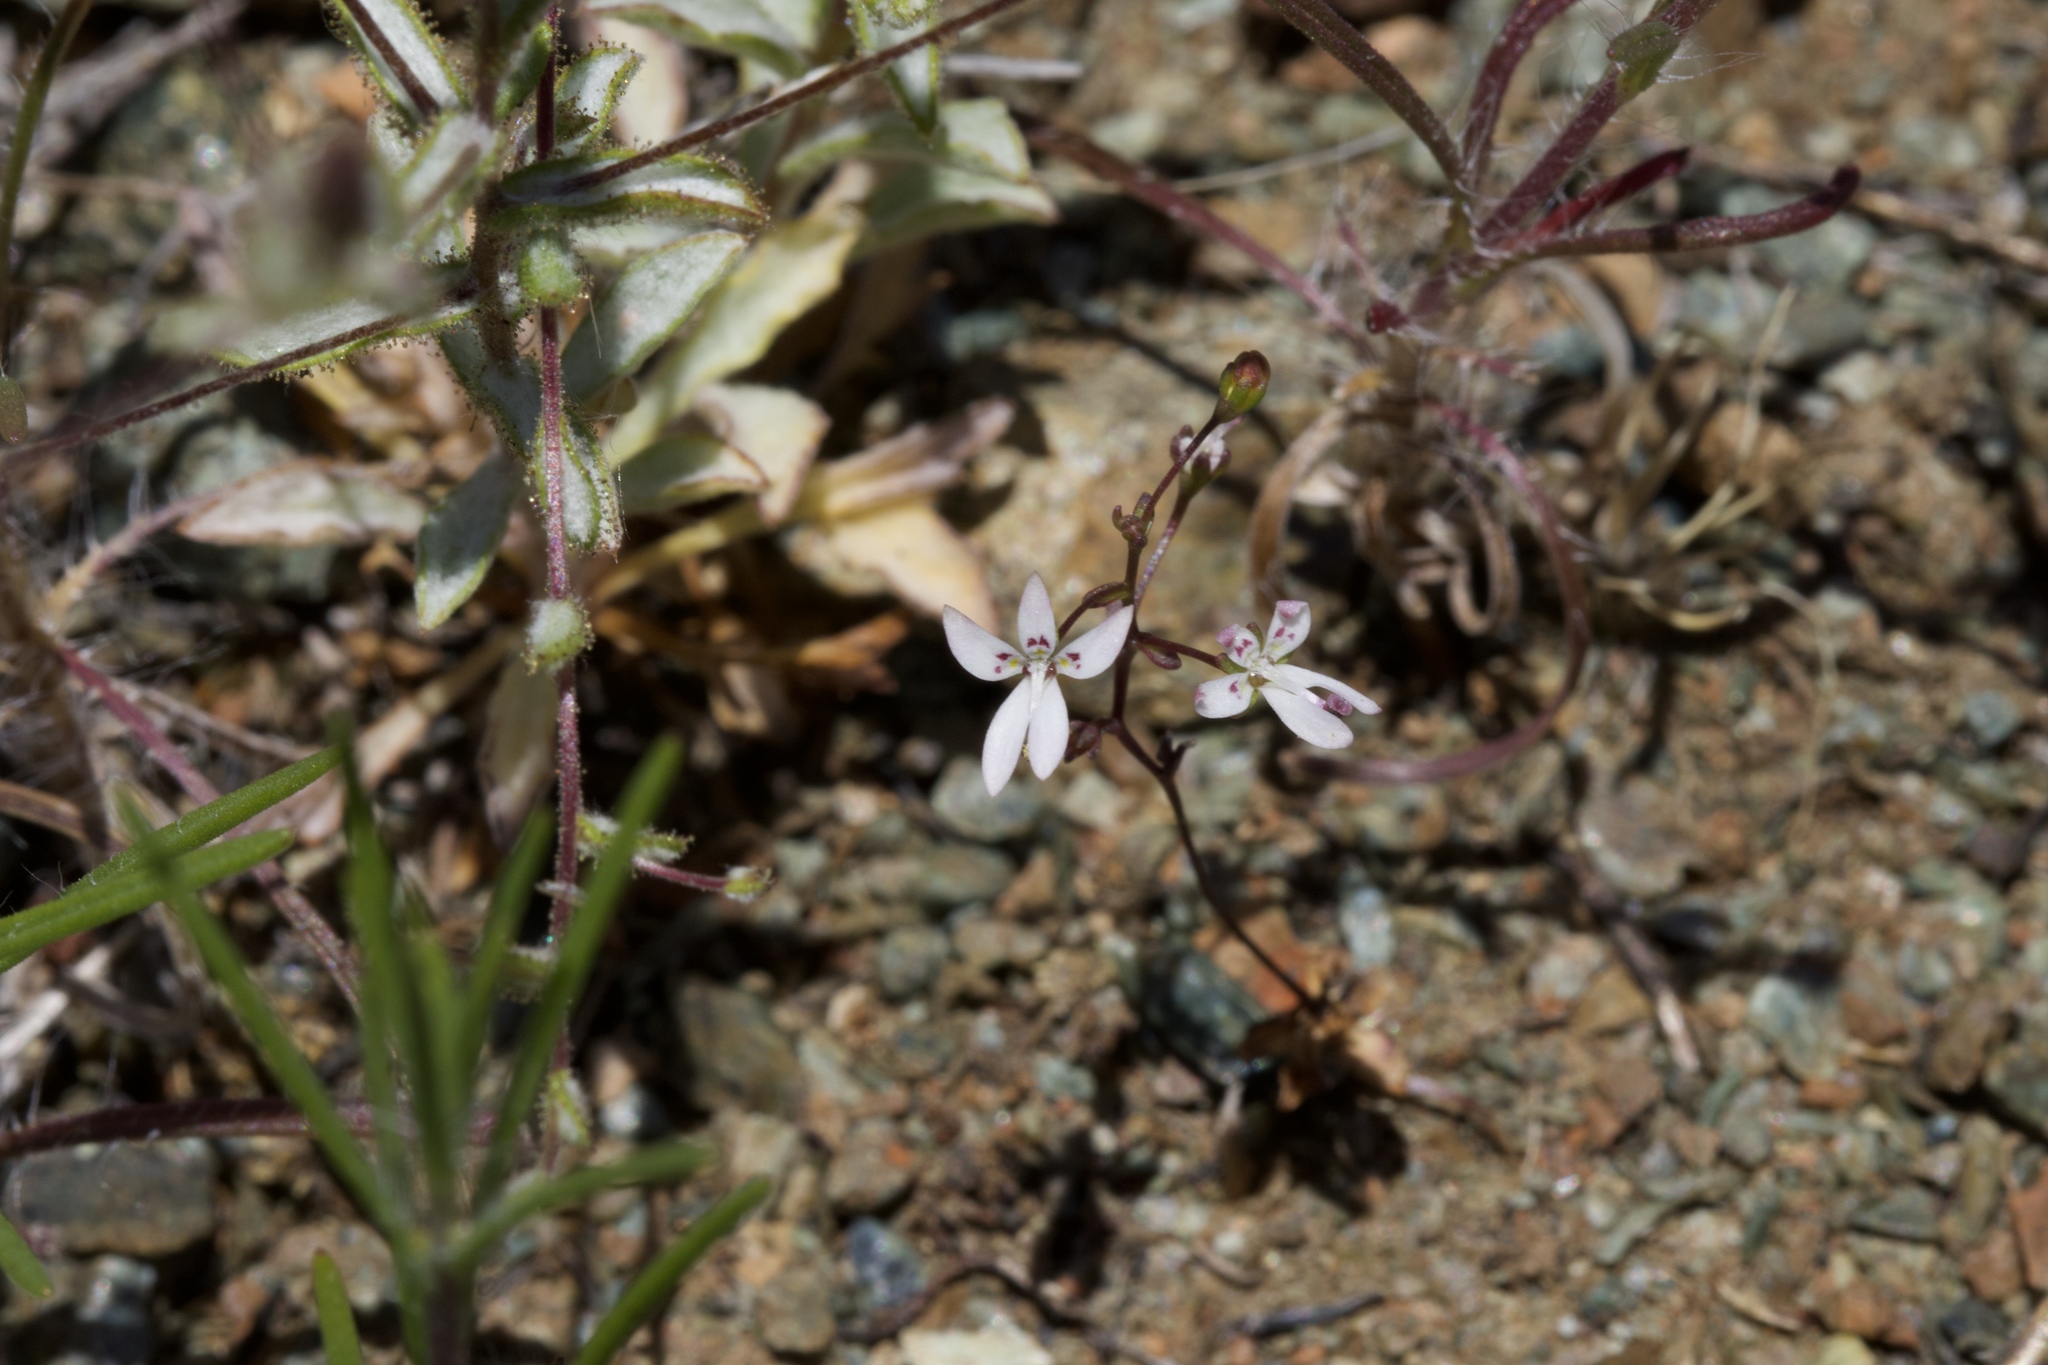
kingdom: Plantae
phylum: Tracheophyta
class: Magnoliopsida
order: Asterales
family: Campanulaceae
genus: Nemacladus
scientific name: Nemacladus montanus
